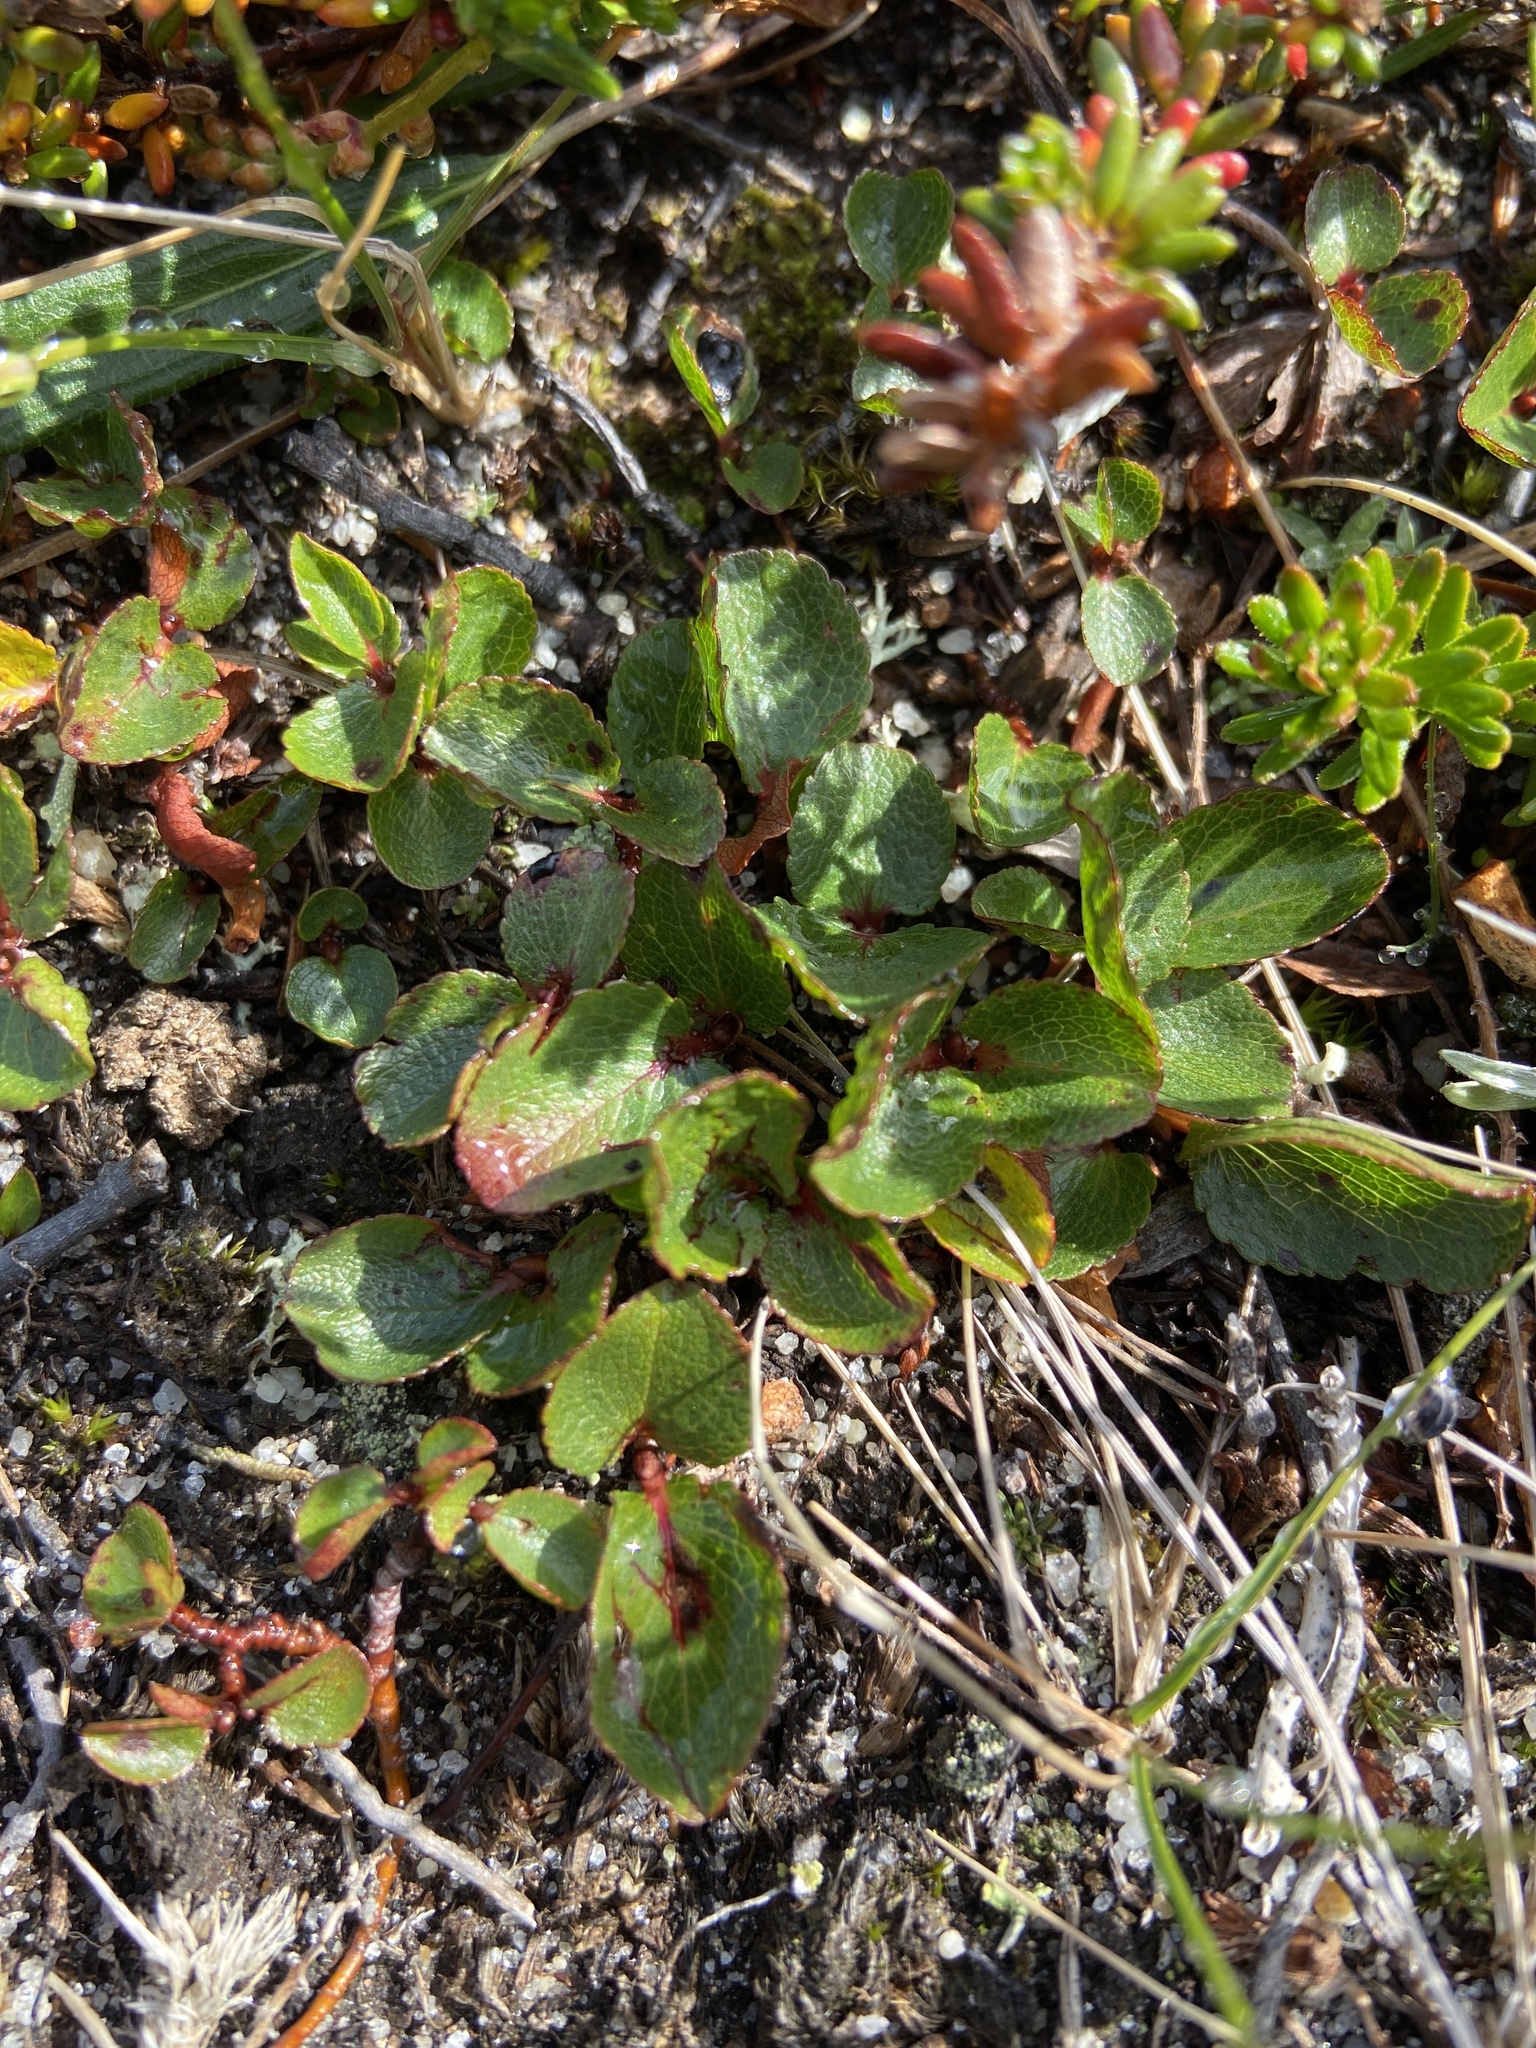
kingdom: Plantae
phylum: Tracheophyta
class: Magnoliopsida
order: Malpighiales
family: Salicaceae
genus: Salix
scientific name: Salix herbacea
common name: Dwarf willow
